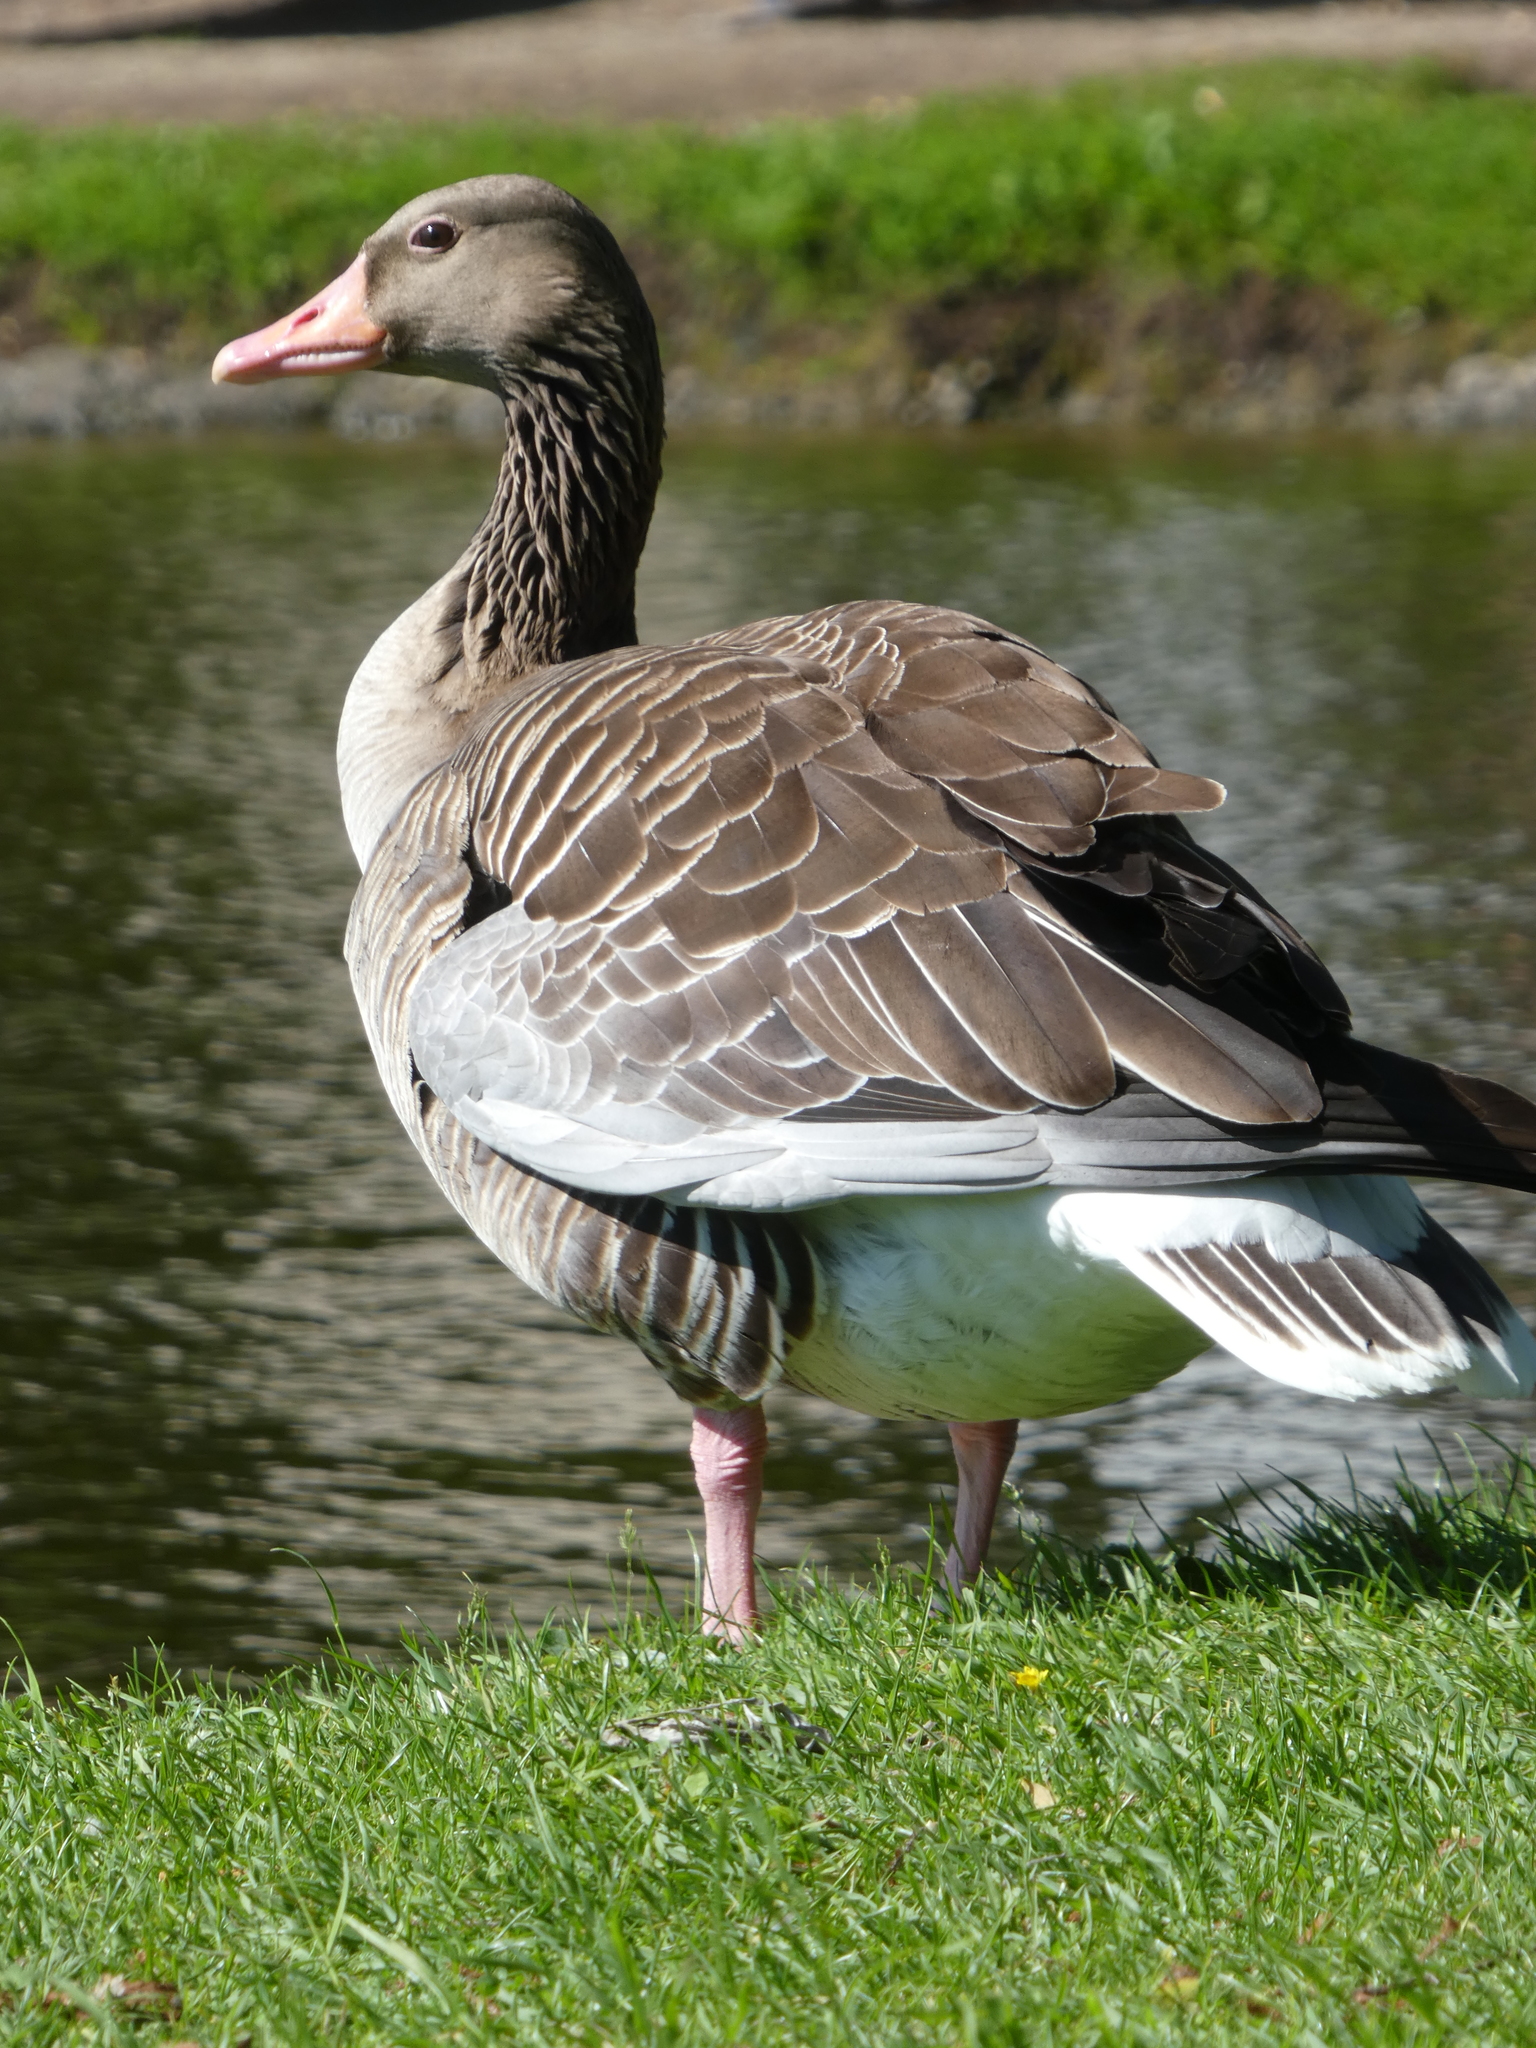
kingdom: Animalia
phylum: Chordata
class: Aves
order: Anseriformes
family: Anatidae
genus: Anser
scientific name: Anser anser
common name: Greylag goose
